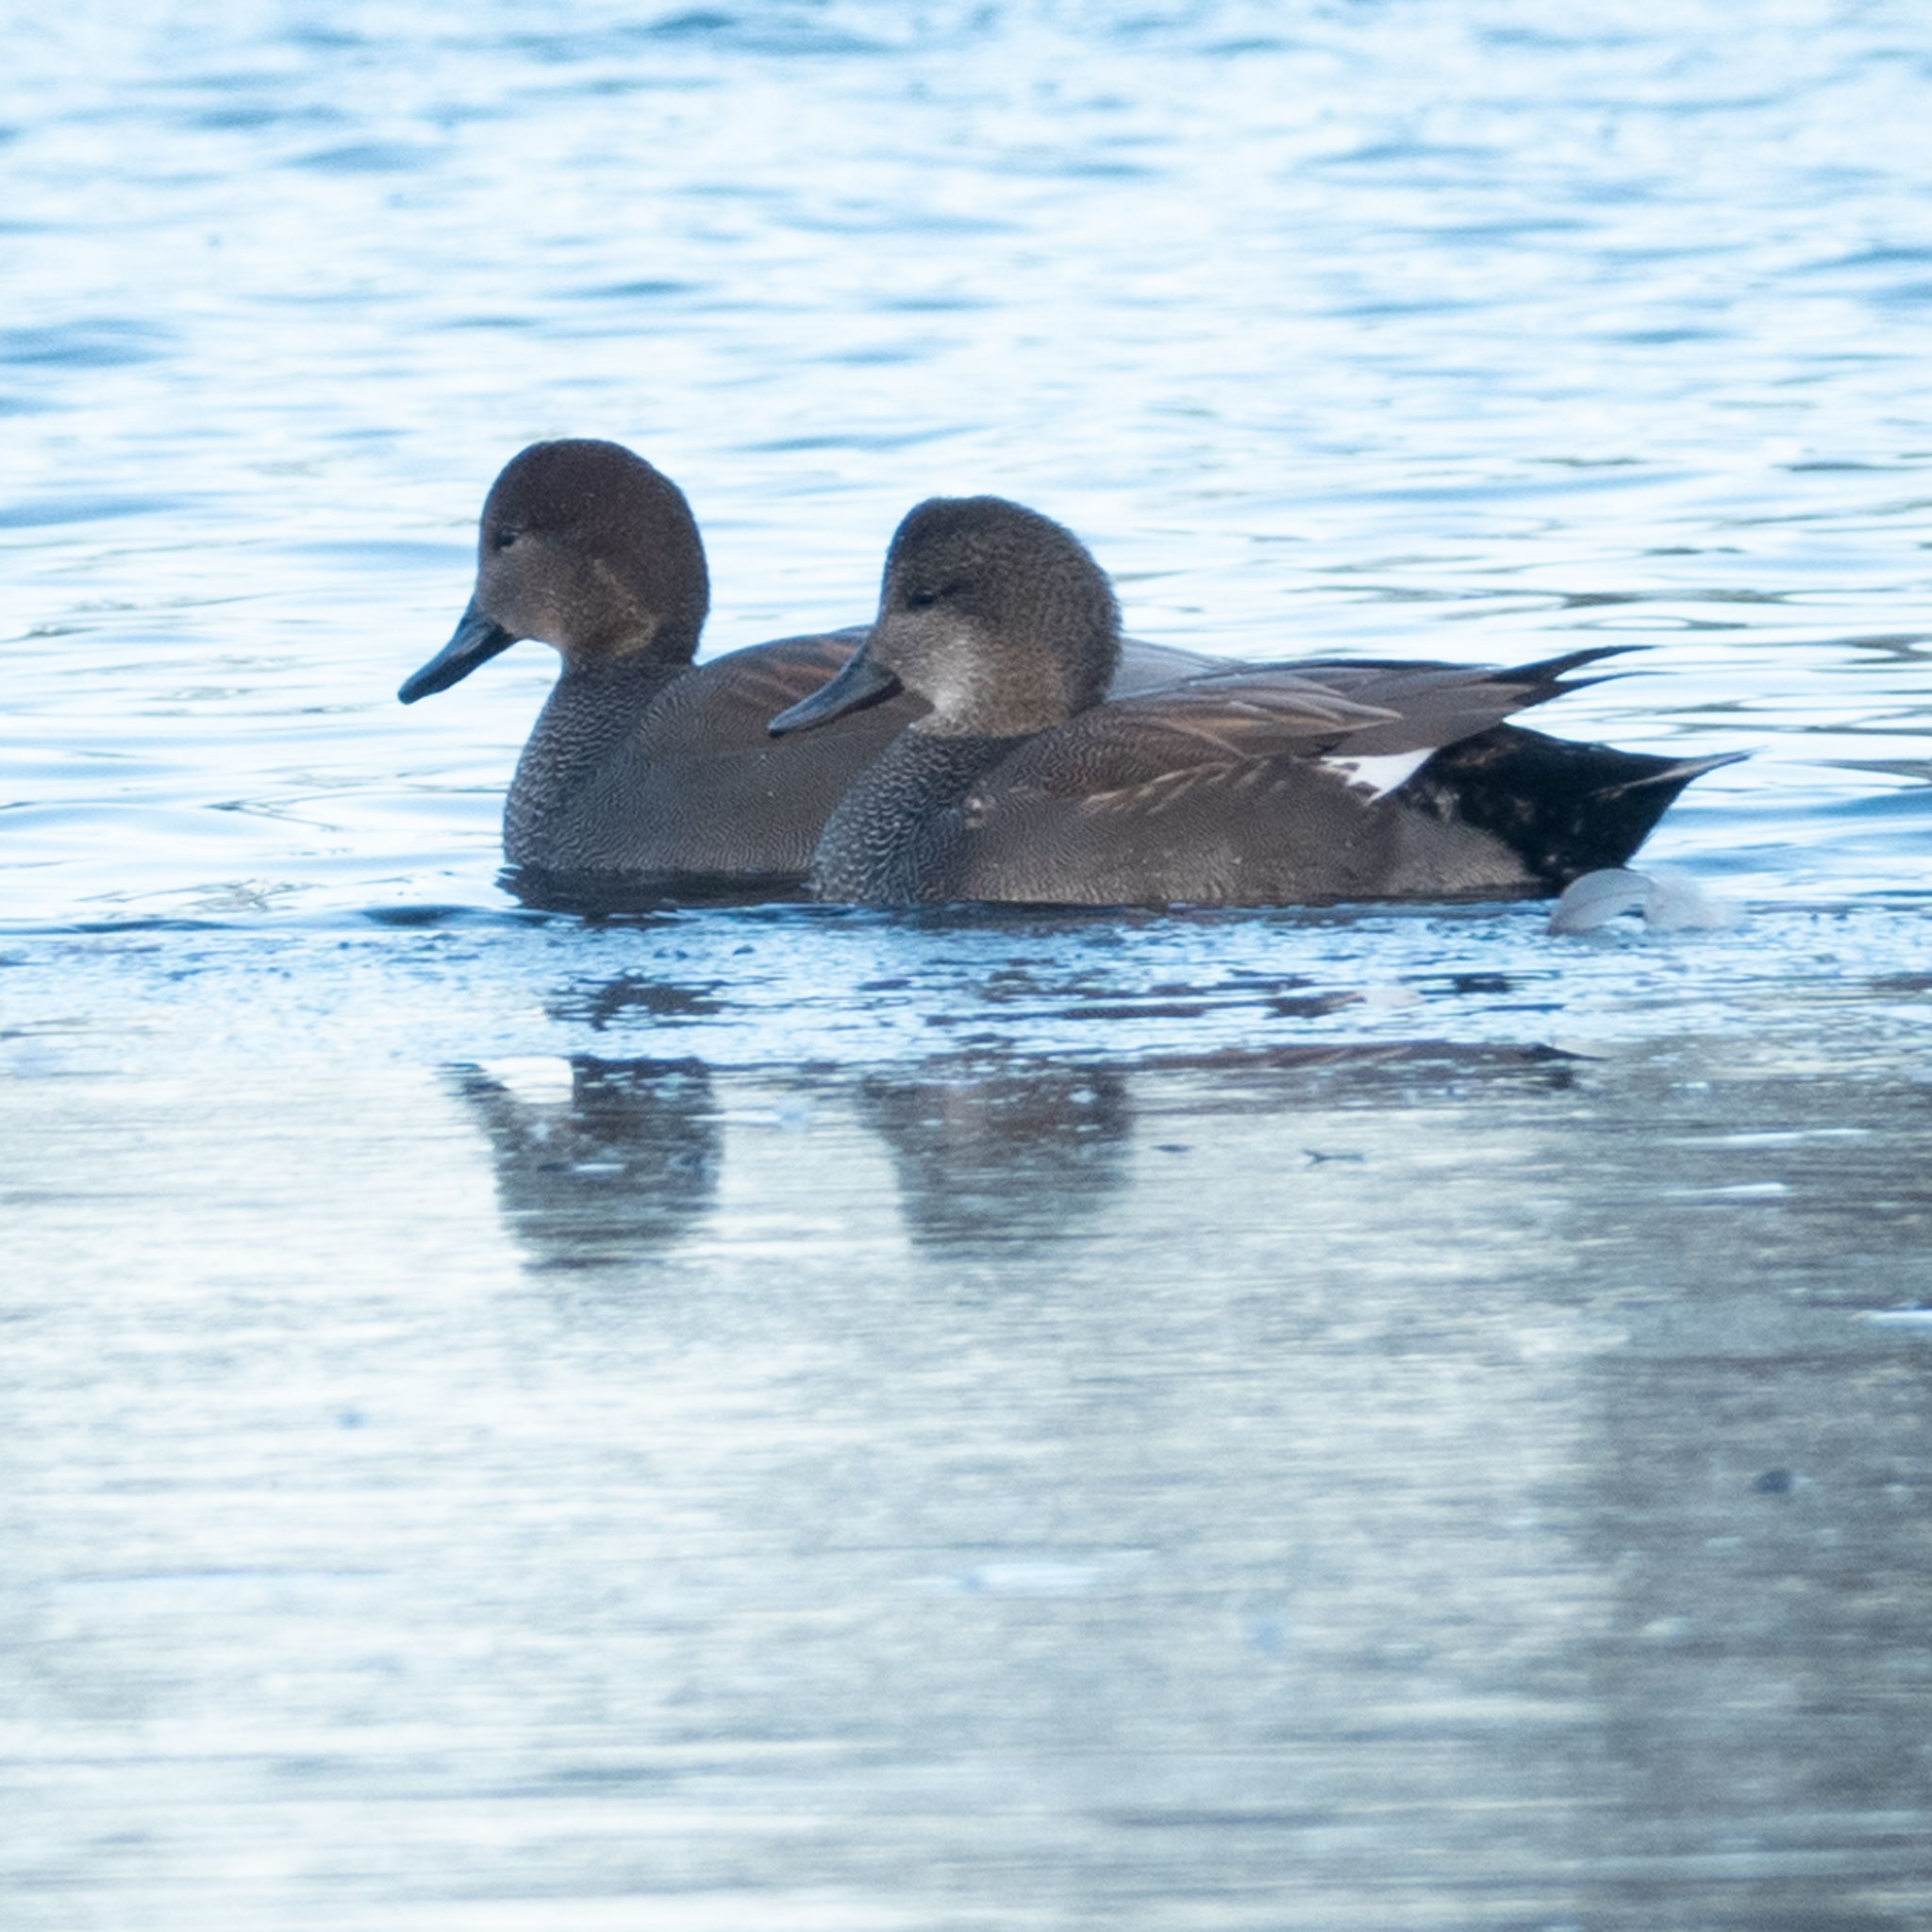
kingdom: Animalia
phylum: Chordata
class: Aves
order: Anseriformes
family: Anatidae
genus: Mareca
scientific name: Mareca strepera
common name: Gadwall
